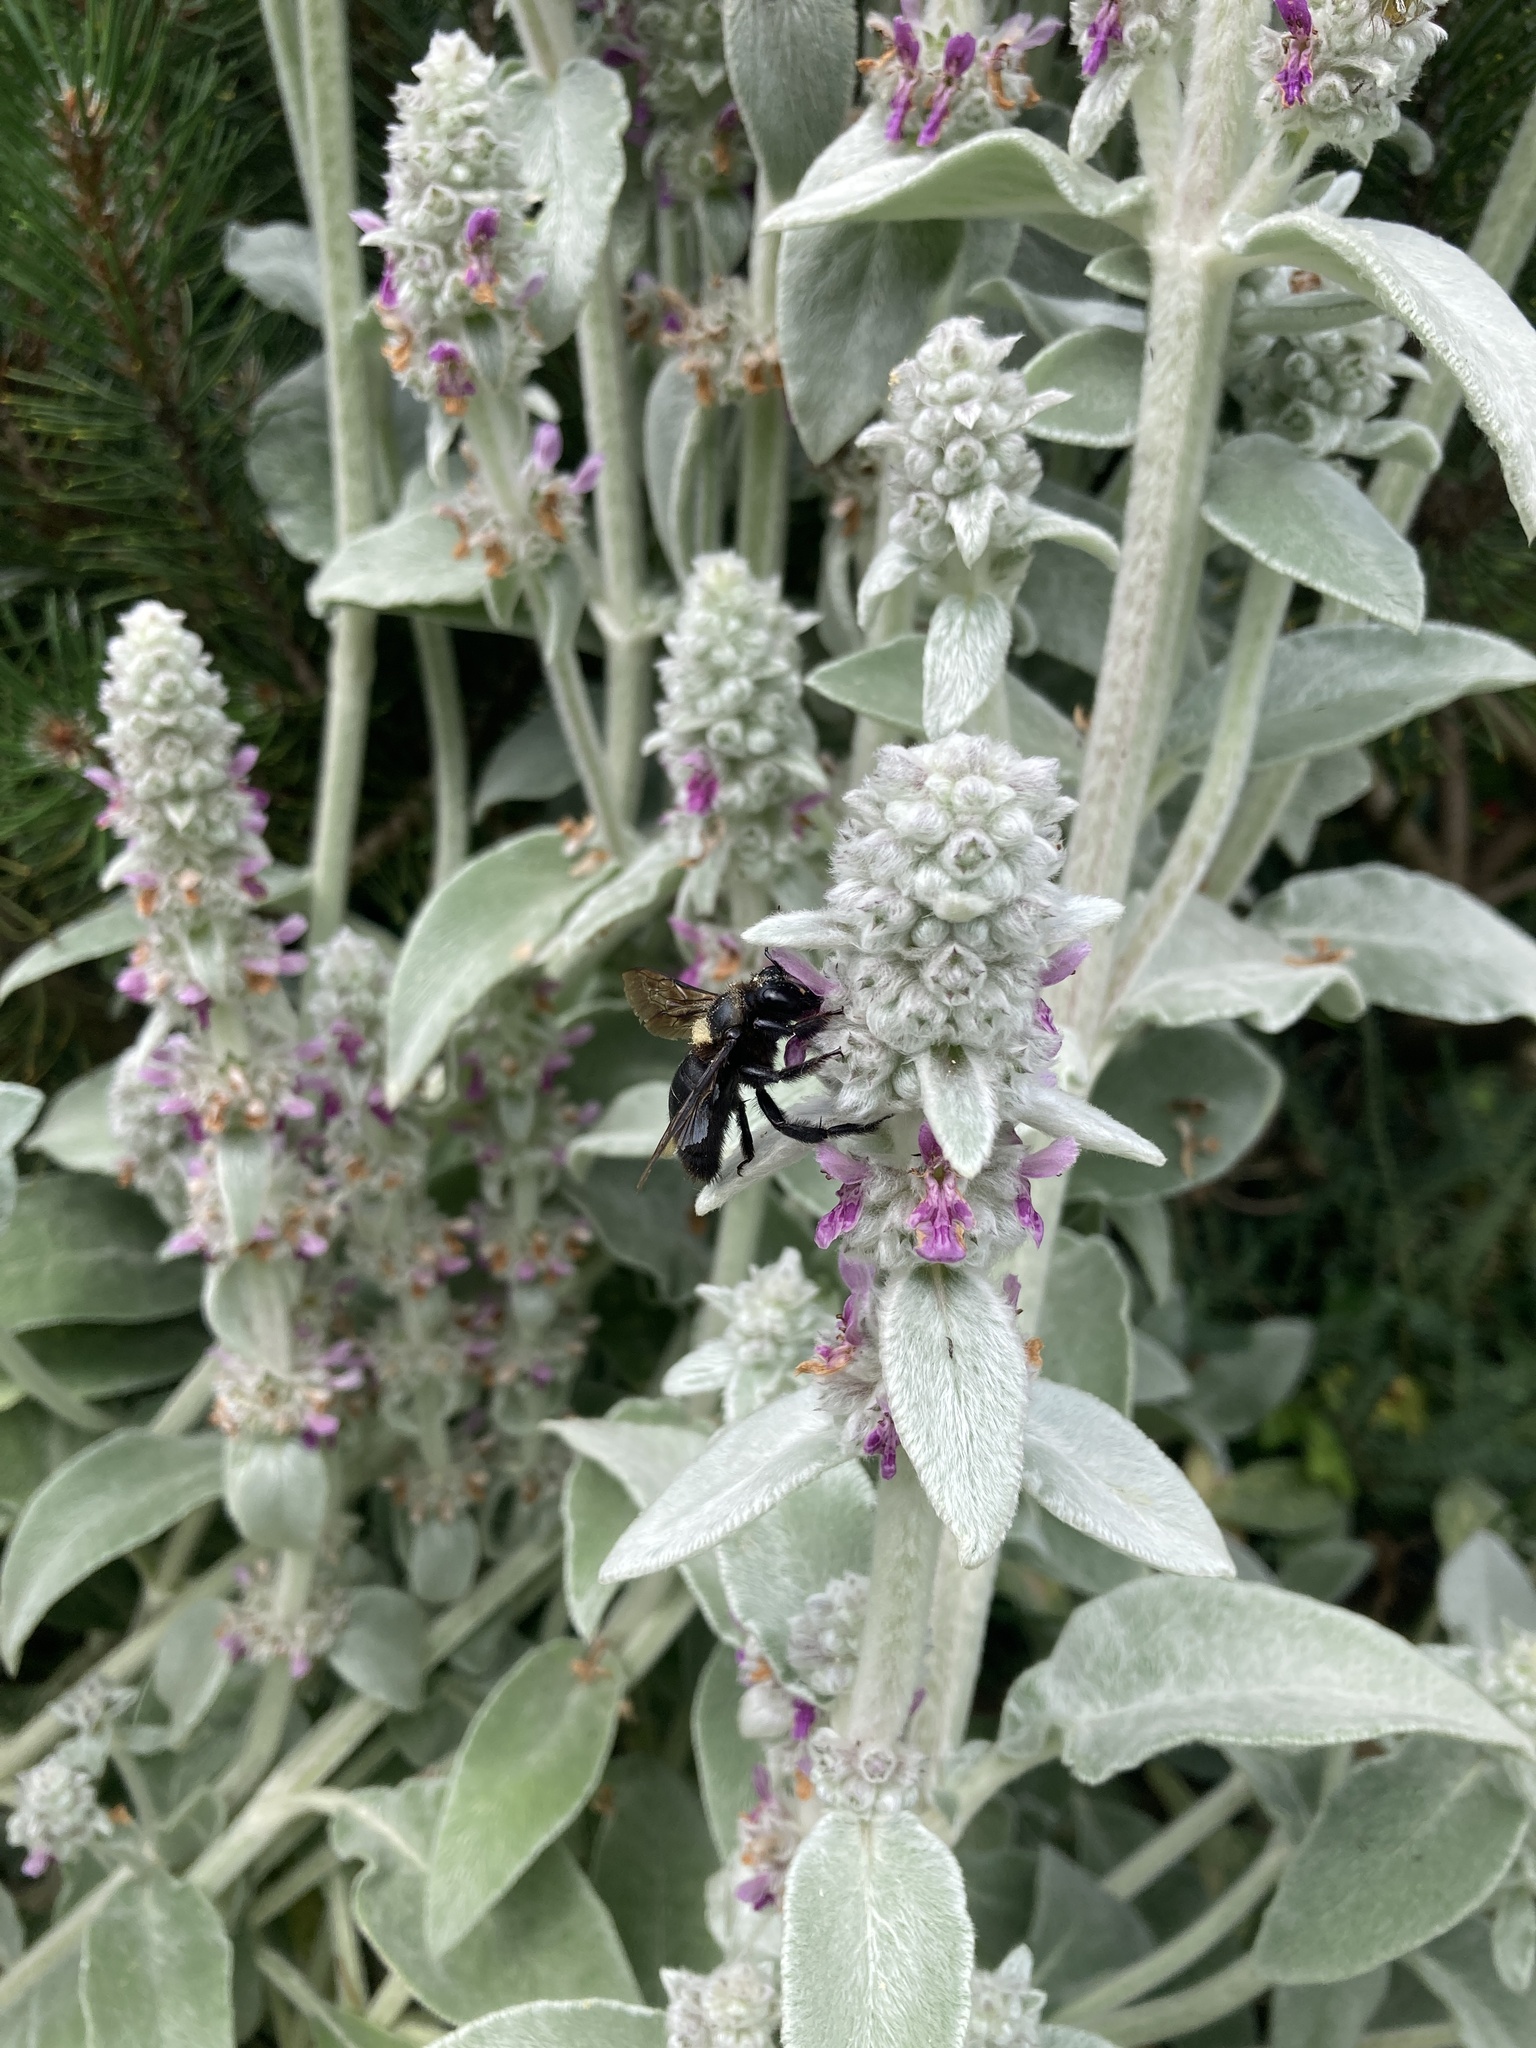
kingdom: Animalia
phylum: Arthropoda
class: Insecta
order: Hymenoptera
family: Apidae
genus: Xylocopa
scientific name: Xylocopa violacea
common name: Violet carpenter bee
